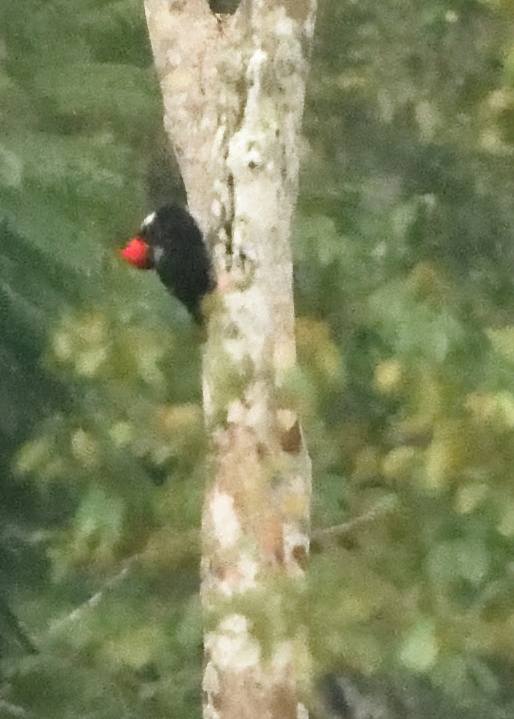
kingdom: Animalia
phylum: Chordata
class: Aves
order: Piciformes
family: Picidae
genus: Campephilus
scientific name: Campephilus melanoleucos
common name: Crimson-crested woodpecker
